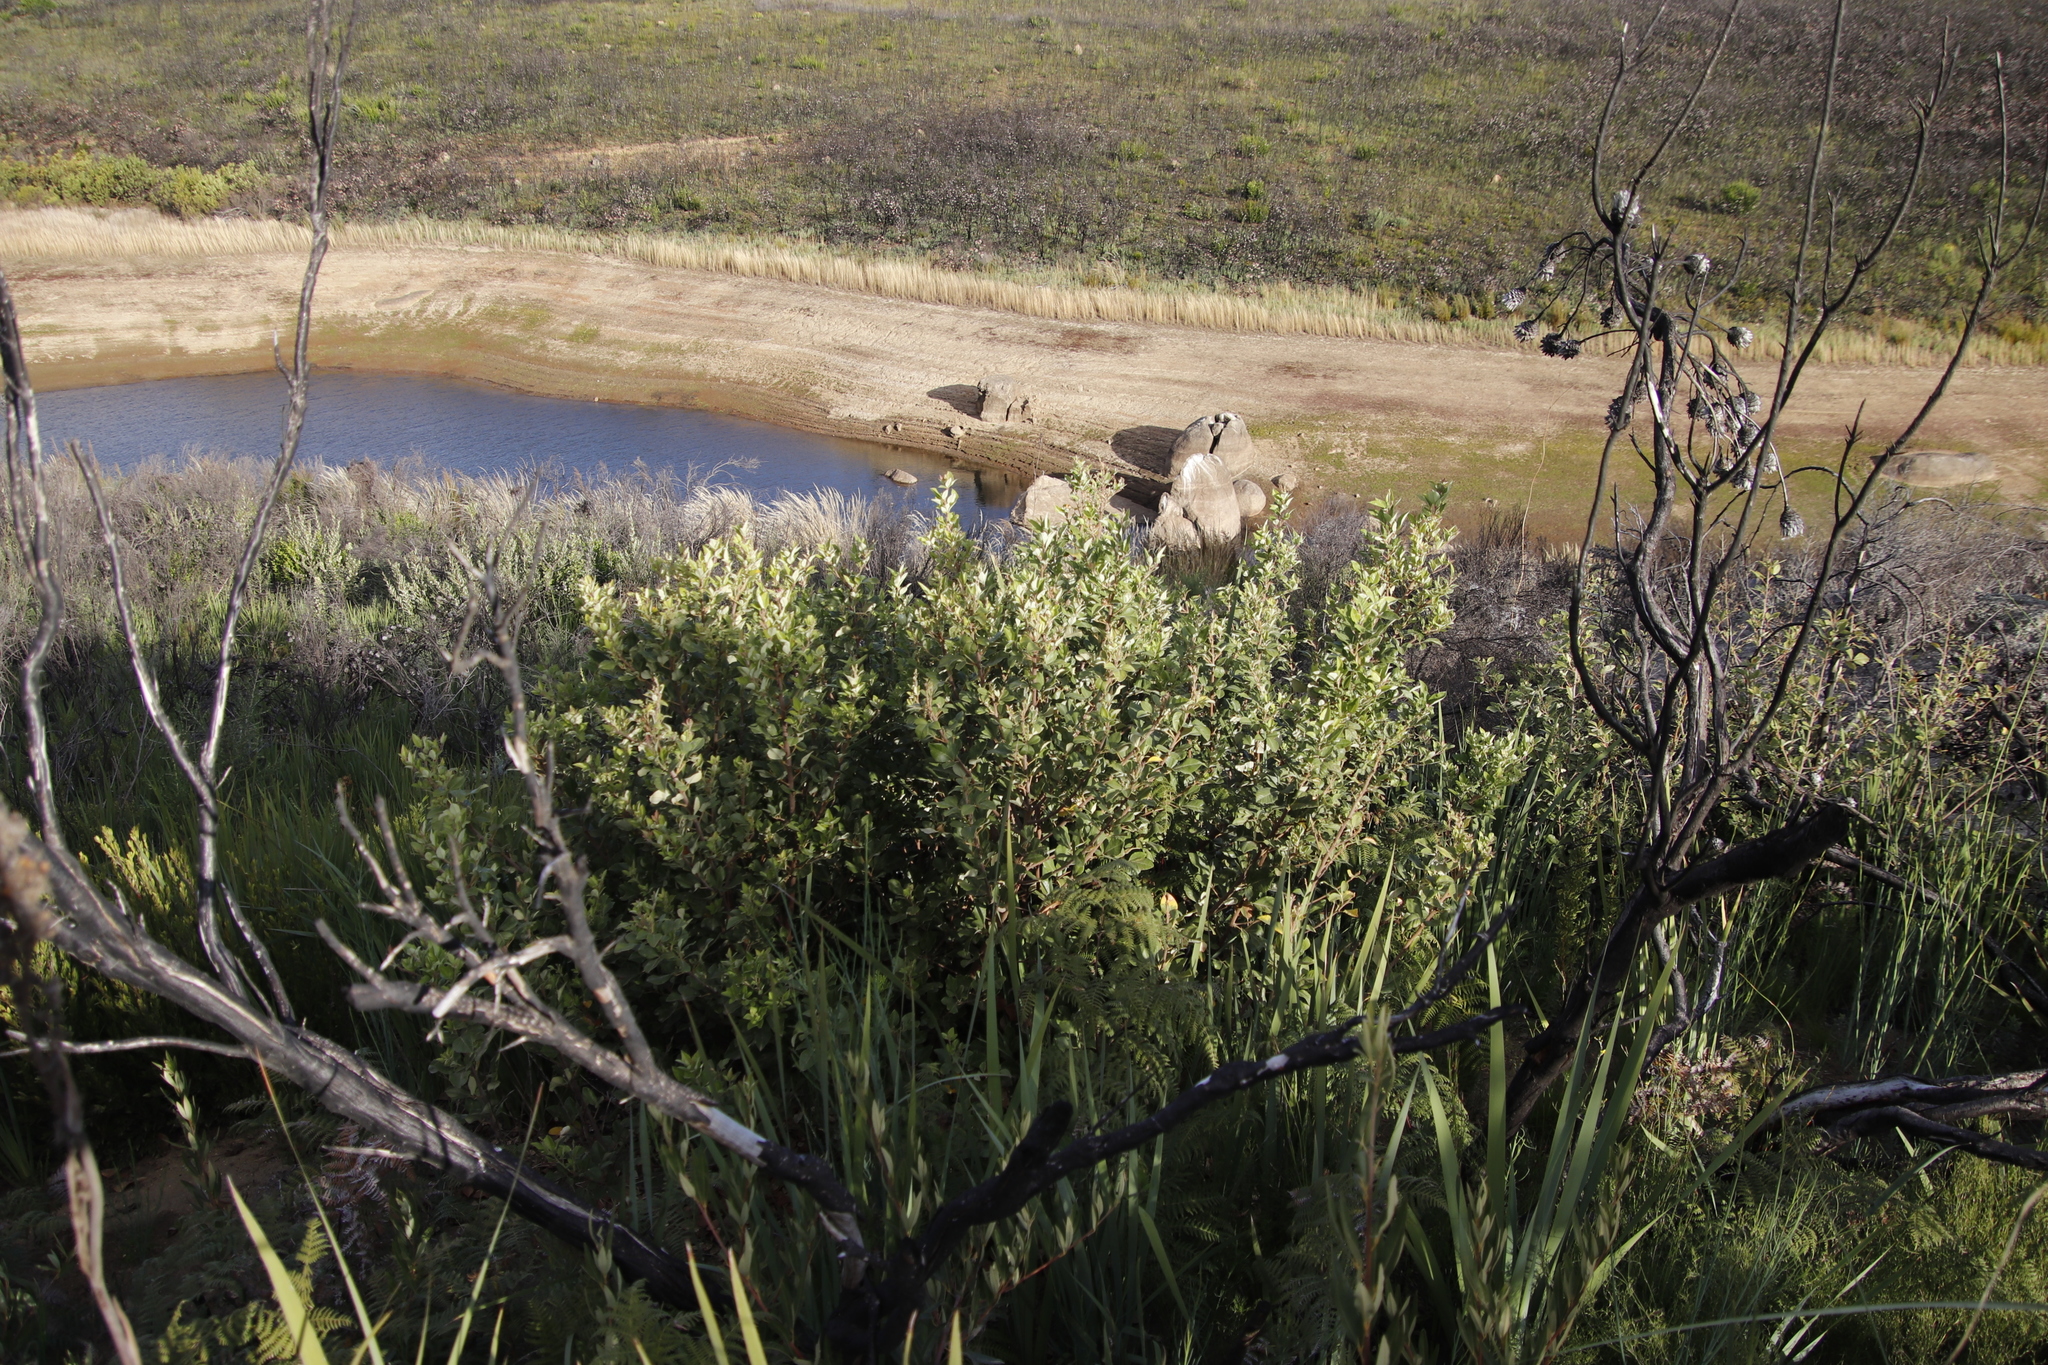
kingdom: Plantae
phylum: Tracheophyta
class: Magnoliopsida
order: Sapindales
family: Anacardiaceae
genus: Searsia
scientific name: Searsia tomentosa
